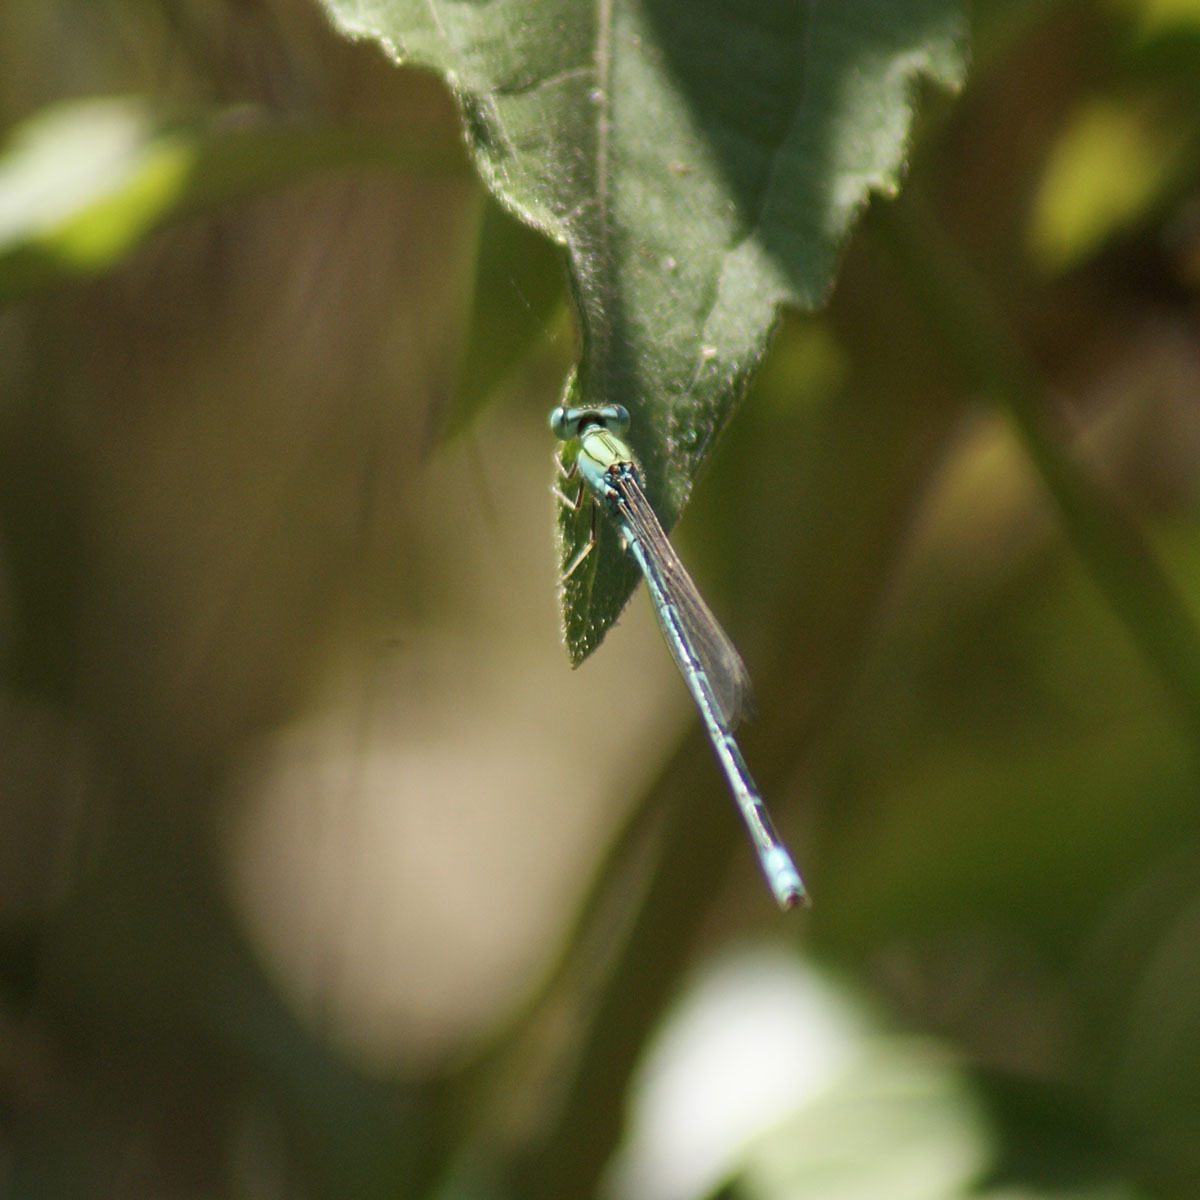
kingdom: Animalia
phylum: Arthropoda
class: Insecta
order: Odonata
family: Coenagrionidae
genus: Pseudagrion
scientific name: Pseudagrion decorum
